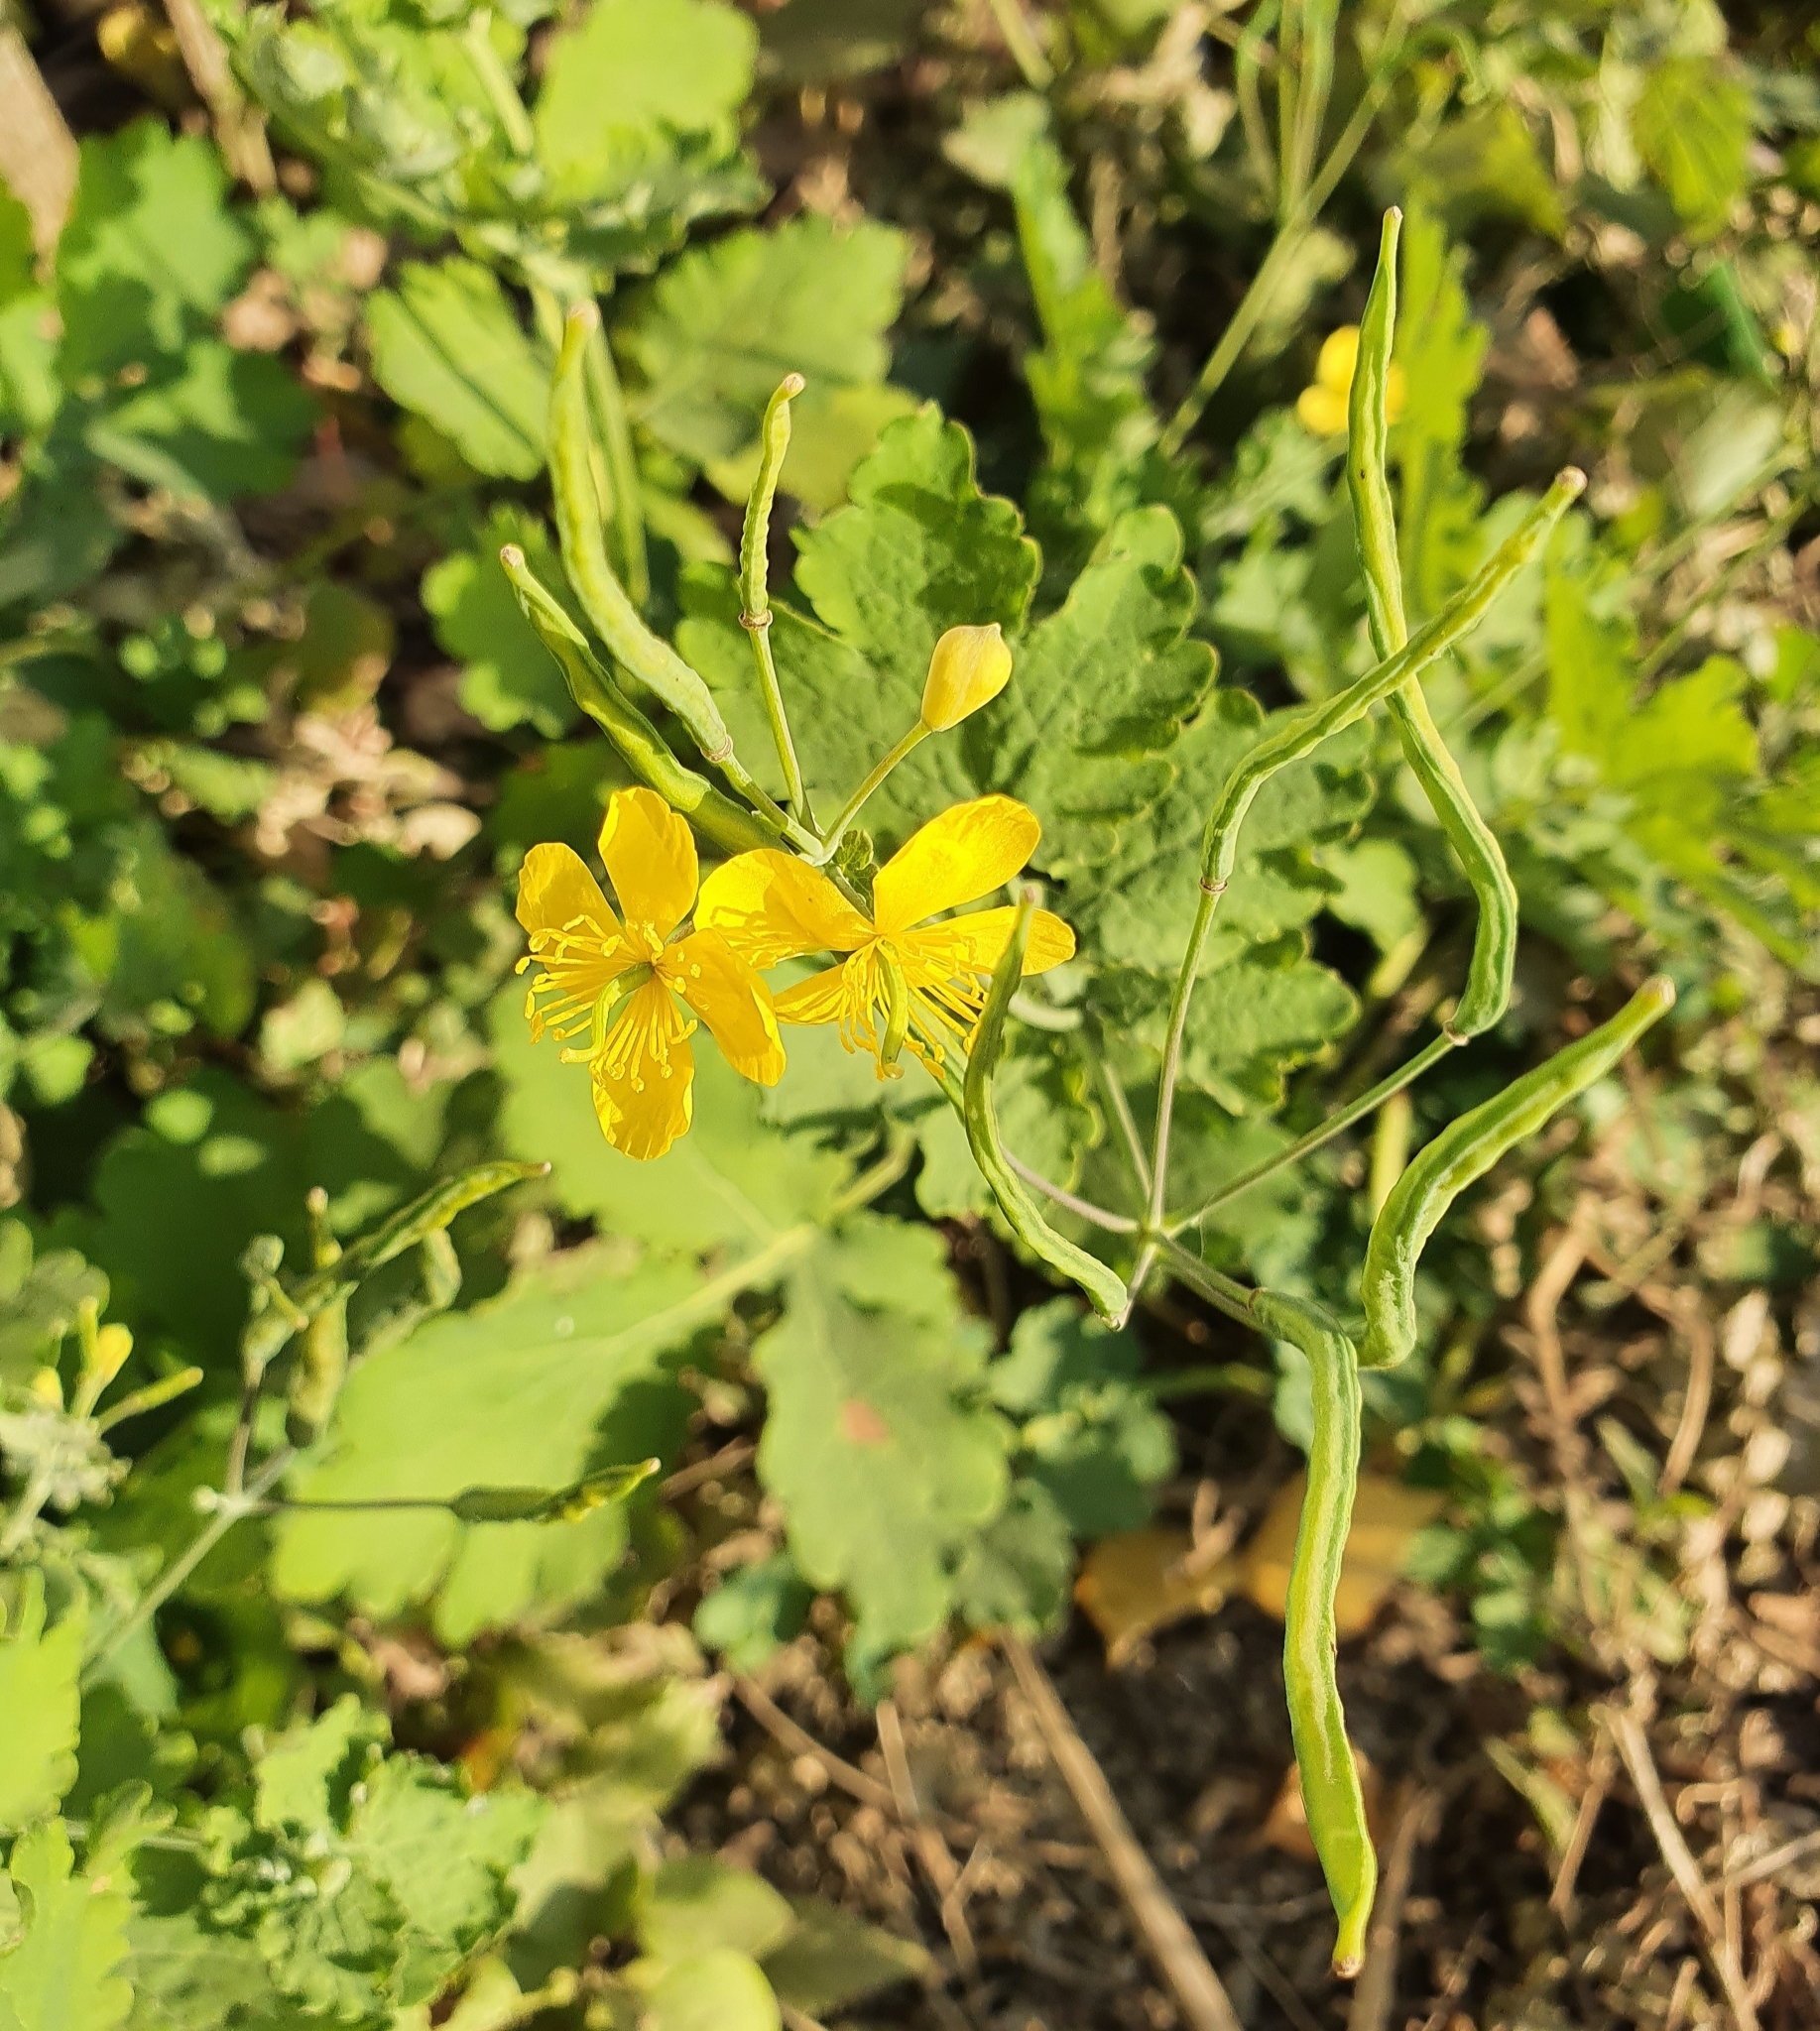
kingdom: Plantae
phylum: Tracheophyta
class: Magnoliopsida
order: Ranunculales
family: Papaveraceae
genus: Chelidonium
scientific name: Chelidonium majus
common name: Greater celandine
